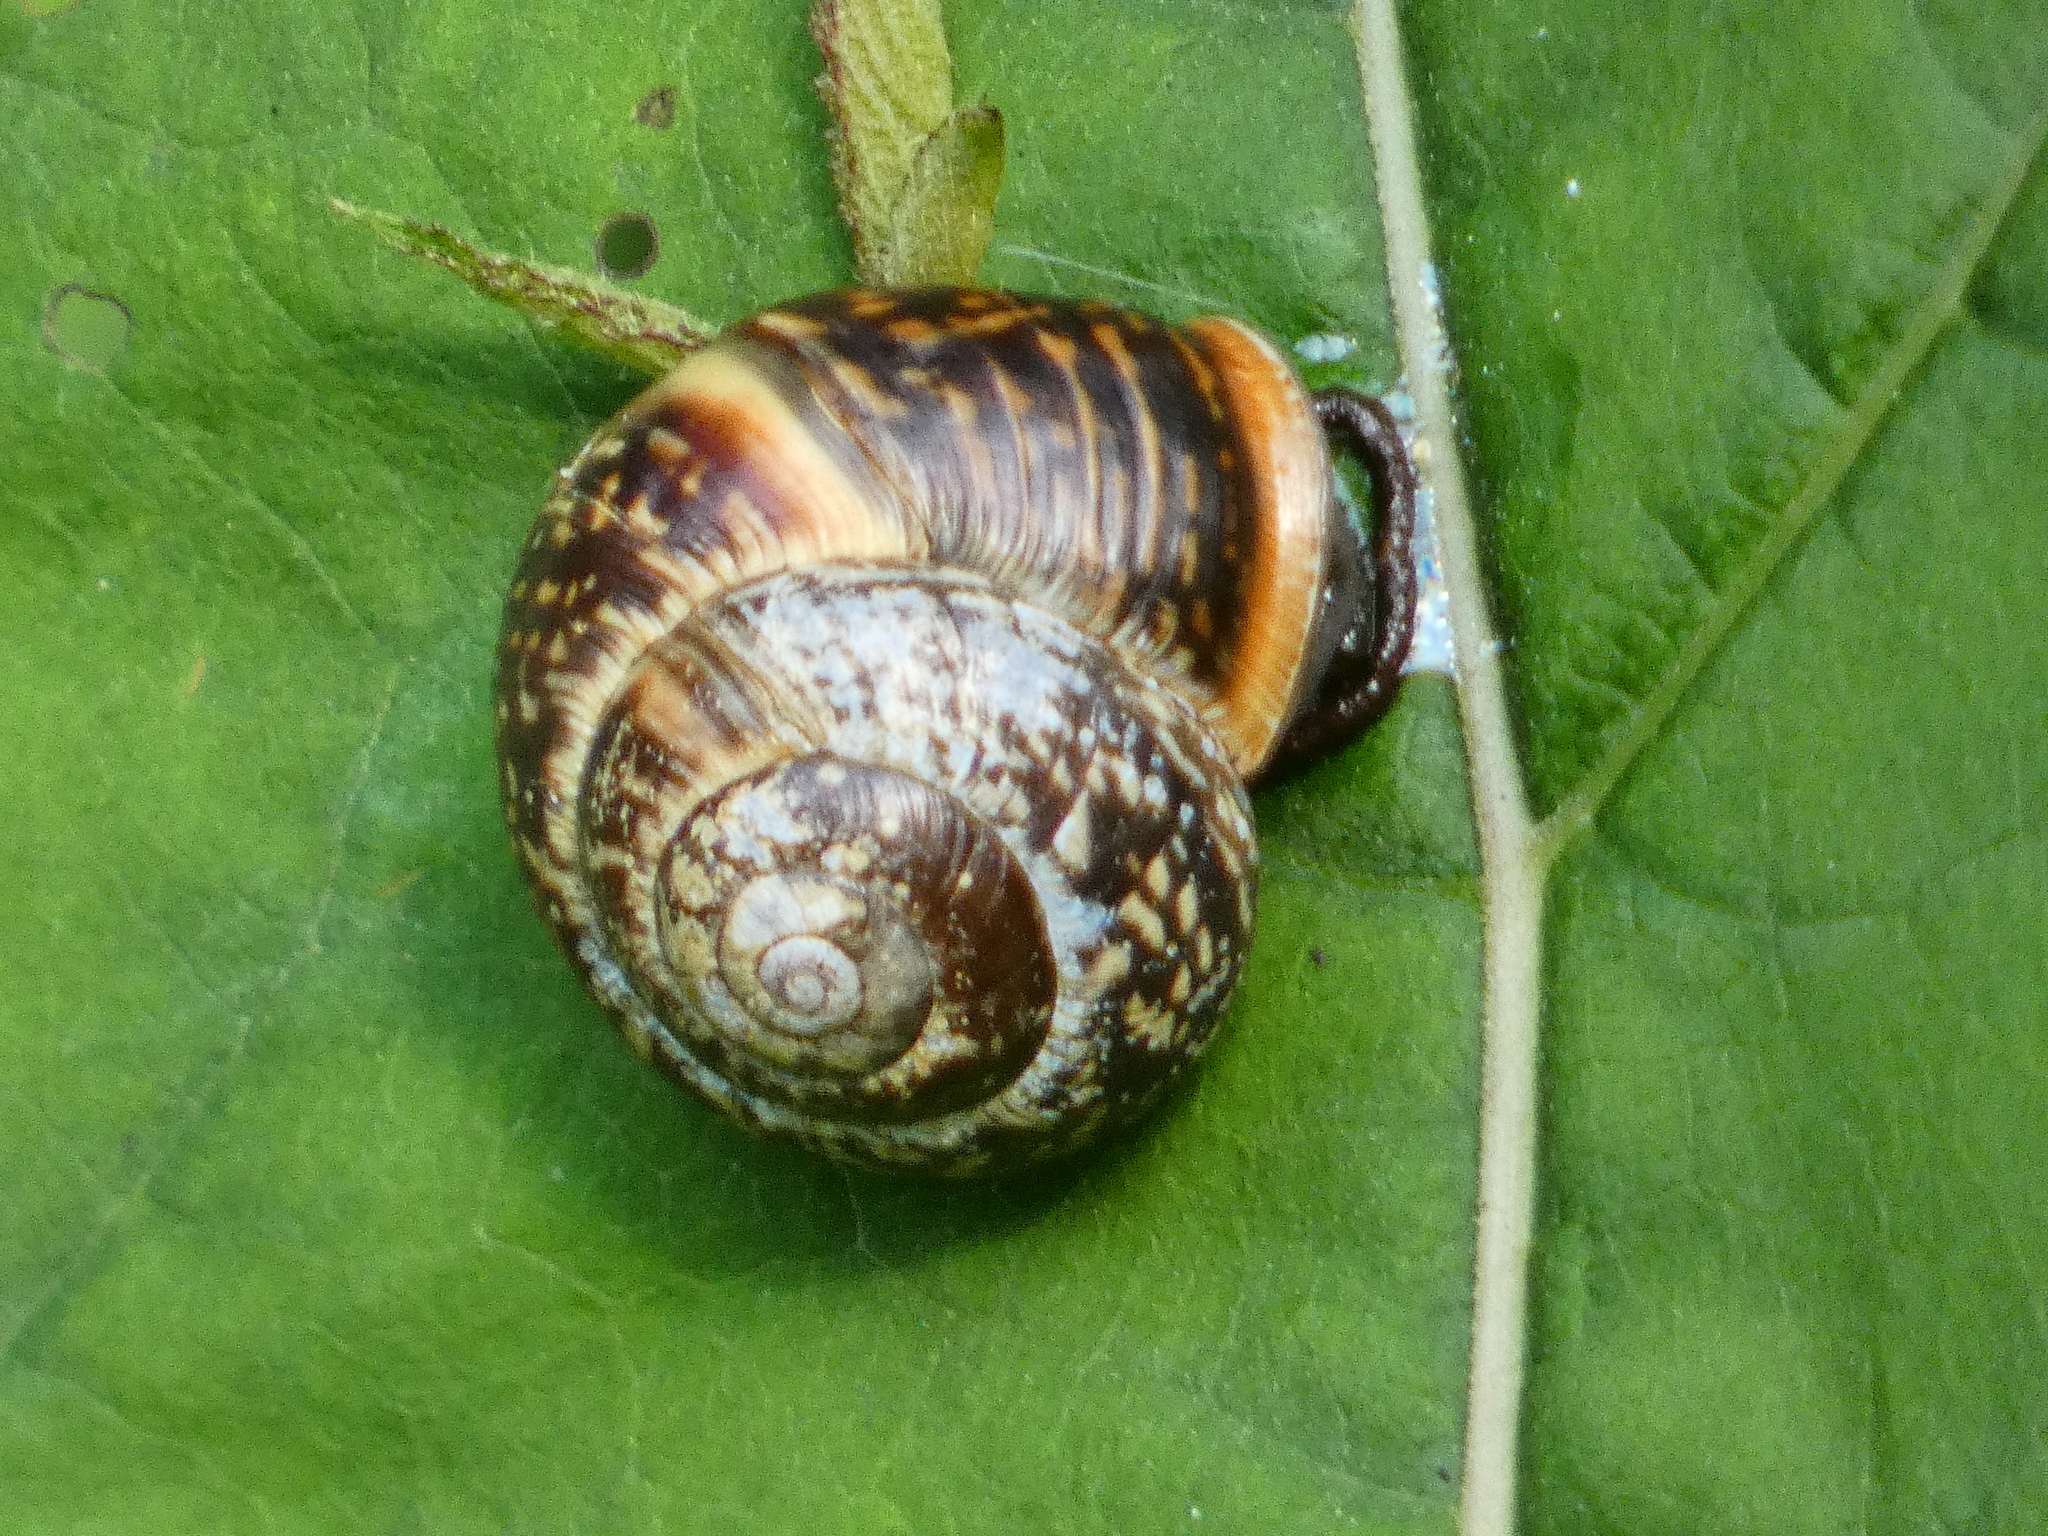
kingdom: Animalia
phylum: Mollusca
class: Gastropoda
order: Stylommatophora
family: Helicidae
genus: Arianta
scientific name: Arianta arbustorum
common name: Copse snail
